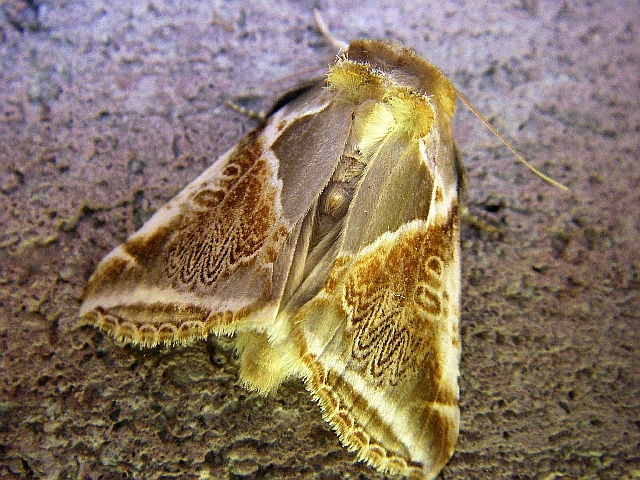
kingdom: Animalia
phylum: Arthropoda
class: Insecta
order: Lepidoptera
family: Drepanidae
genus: Habrosyne
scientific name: Habrosyne pyritoides
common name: Buff arches
